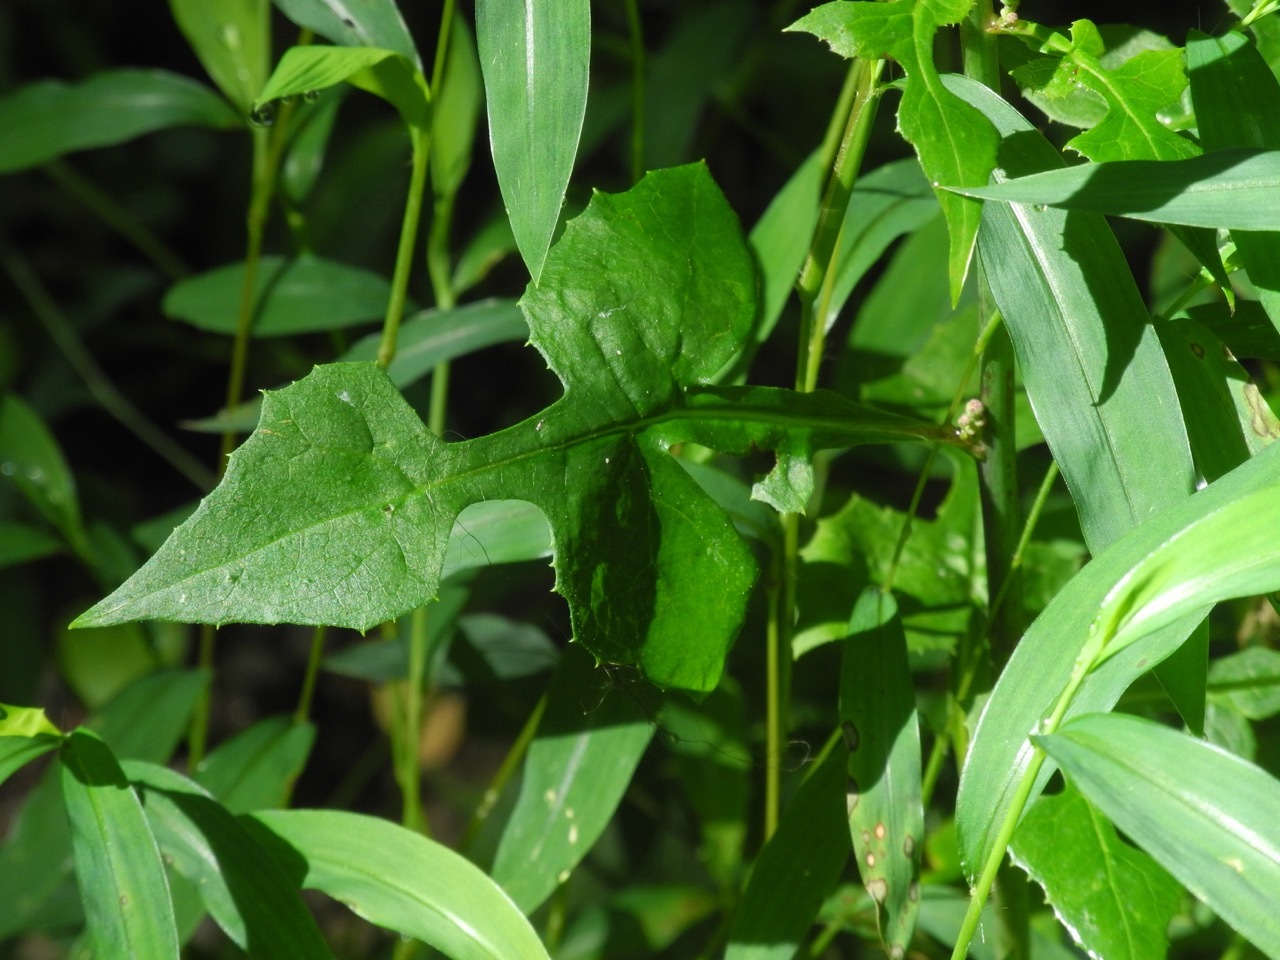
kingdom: Plantae
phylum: Tracheophyta
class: Magnoliopsida
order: Asterales
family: Asteraceae
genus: Lactuca
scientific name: Lactuca floridana
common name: Woodland lettuce
